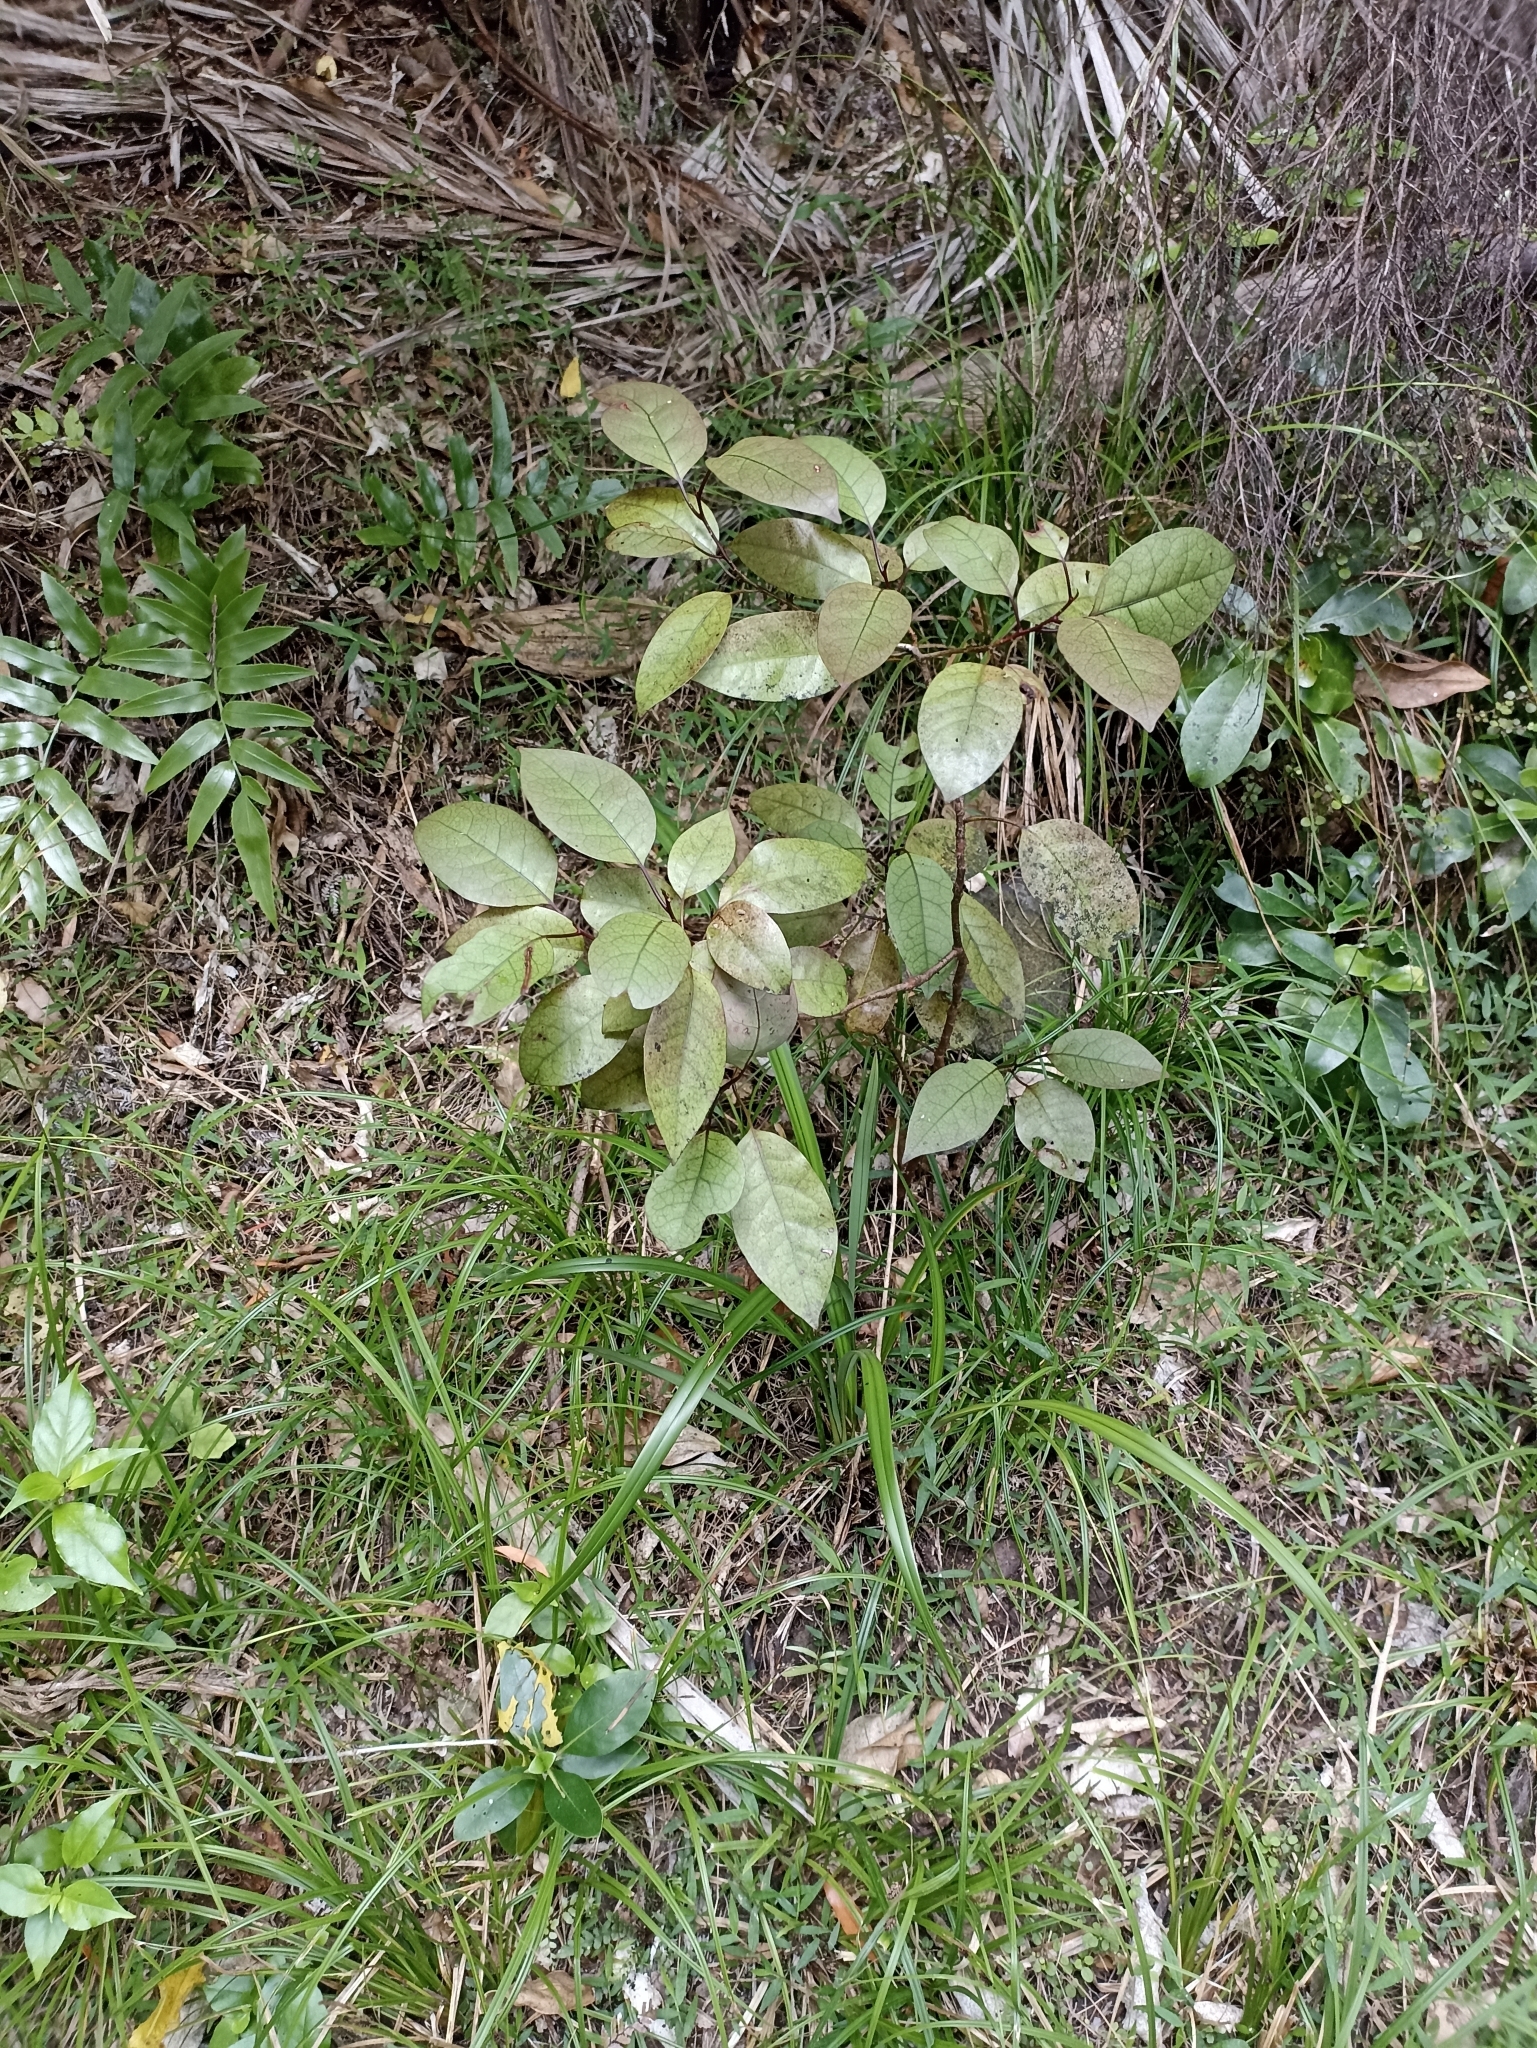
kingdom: Plantae
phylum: Tracheophyta
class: Magnoliopsida
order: Laurales
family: Lauraceae
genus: Litsea
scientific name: Litsea calicaris
